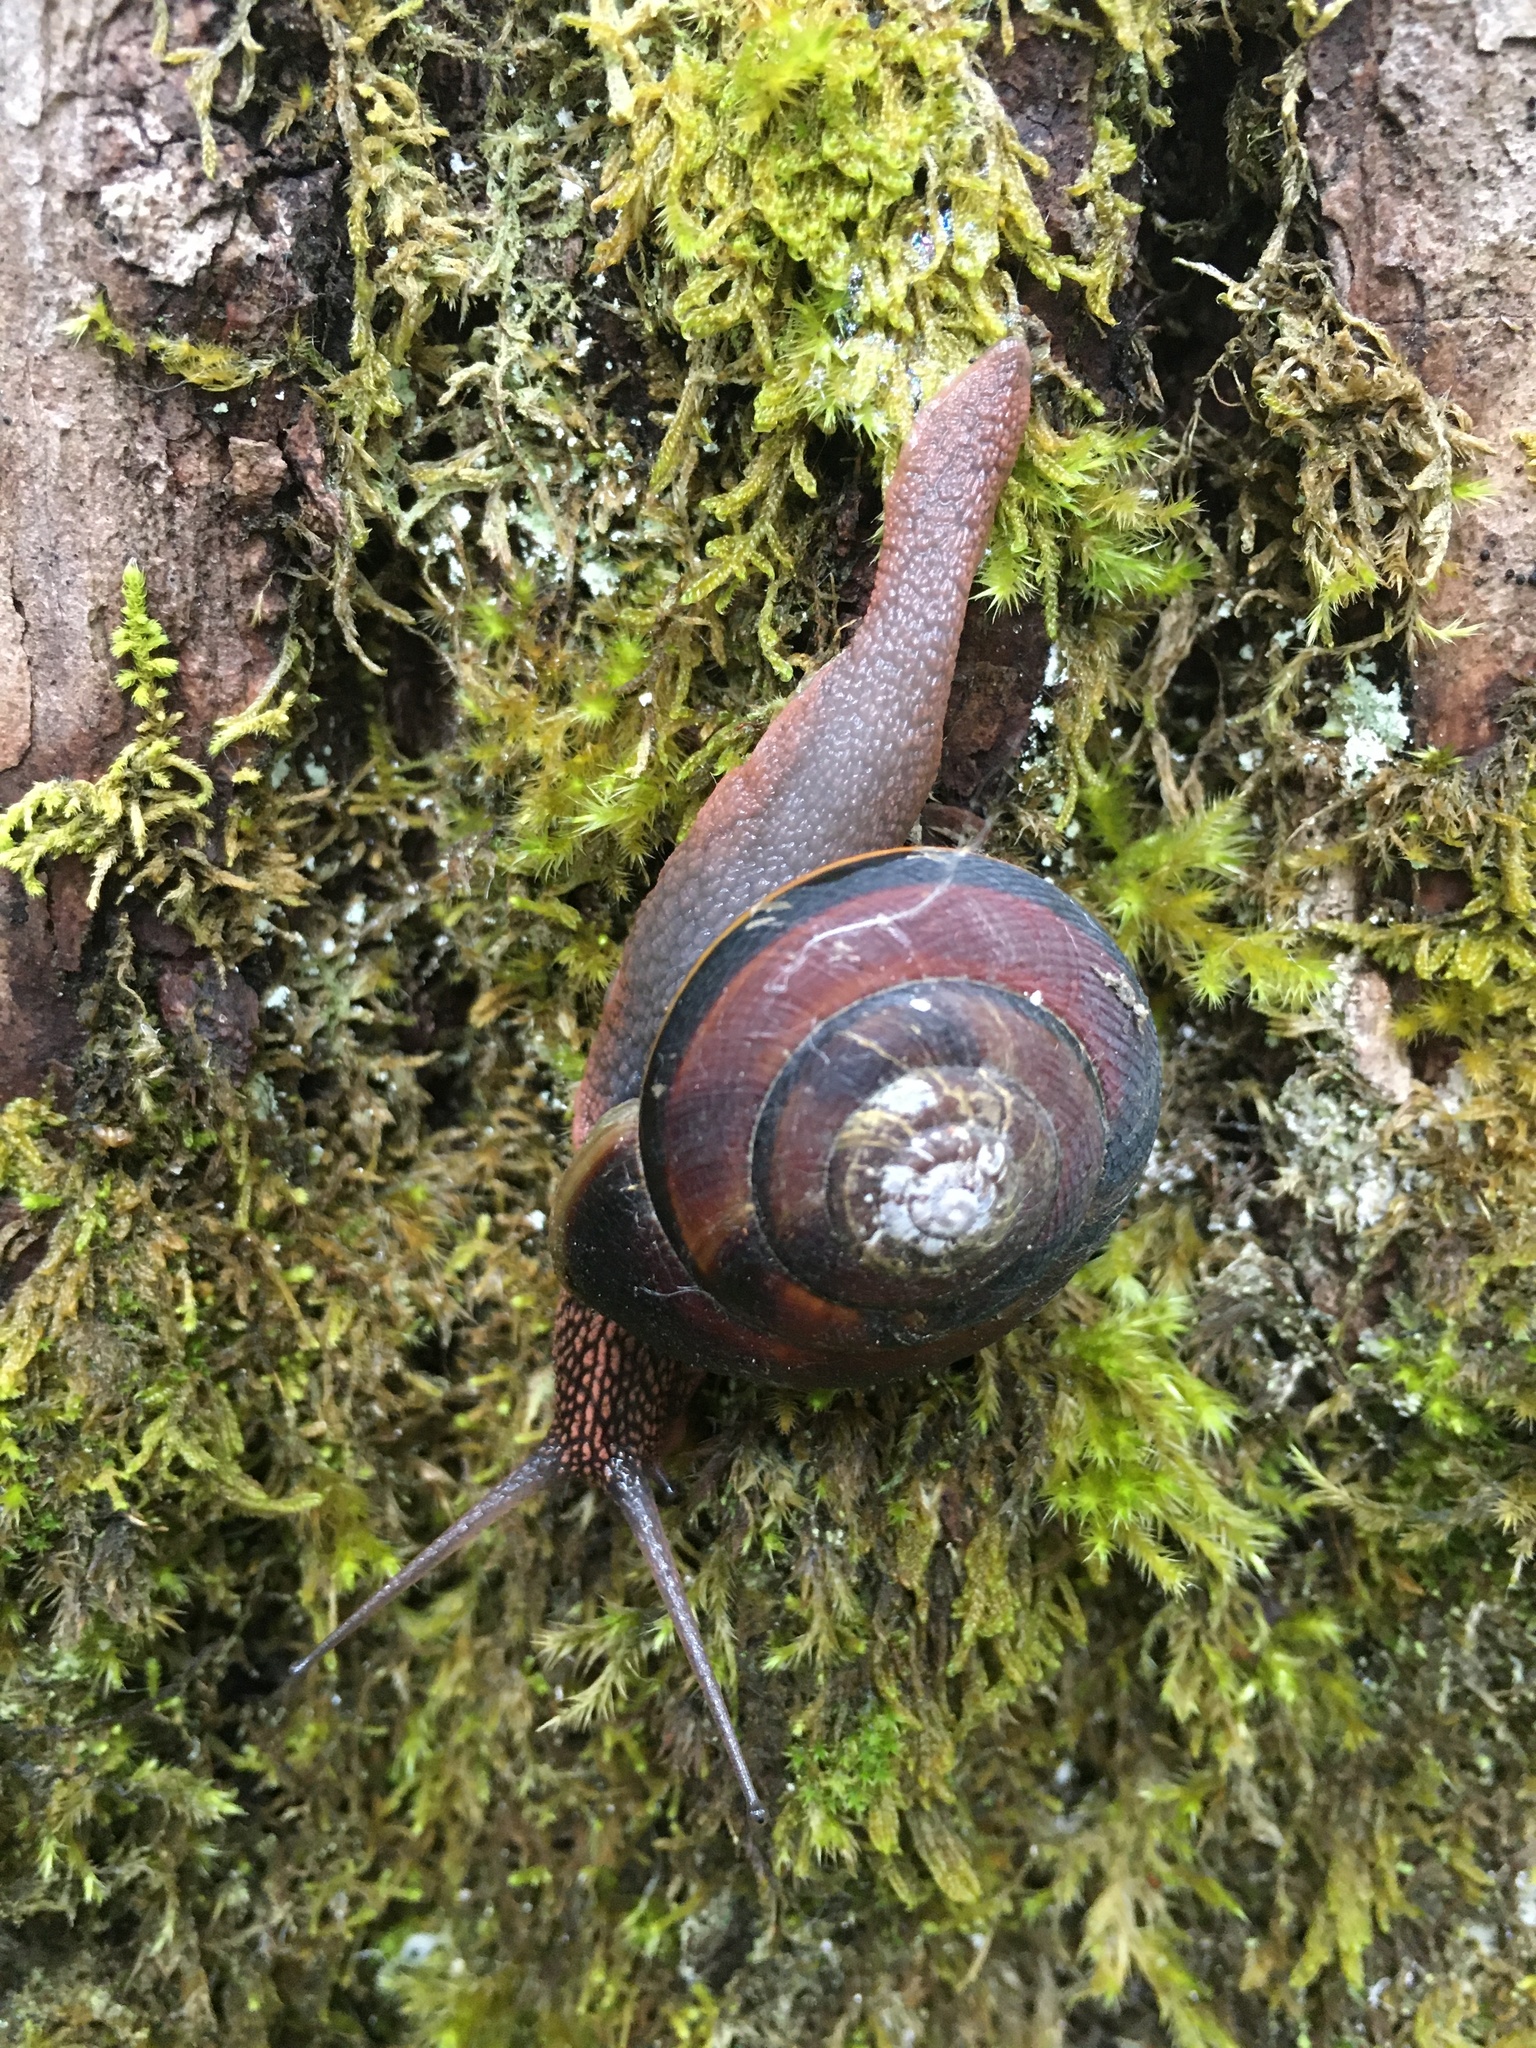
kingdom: Animalia
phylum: Mollusca
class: Gastropoda
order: Stylommatophora
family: Xanthonychidae
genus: Monadenia
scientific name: Monadenia fidelis
